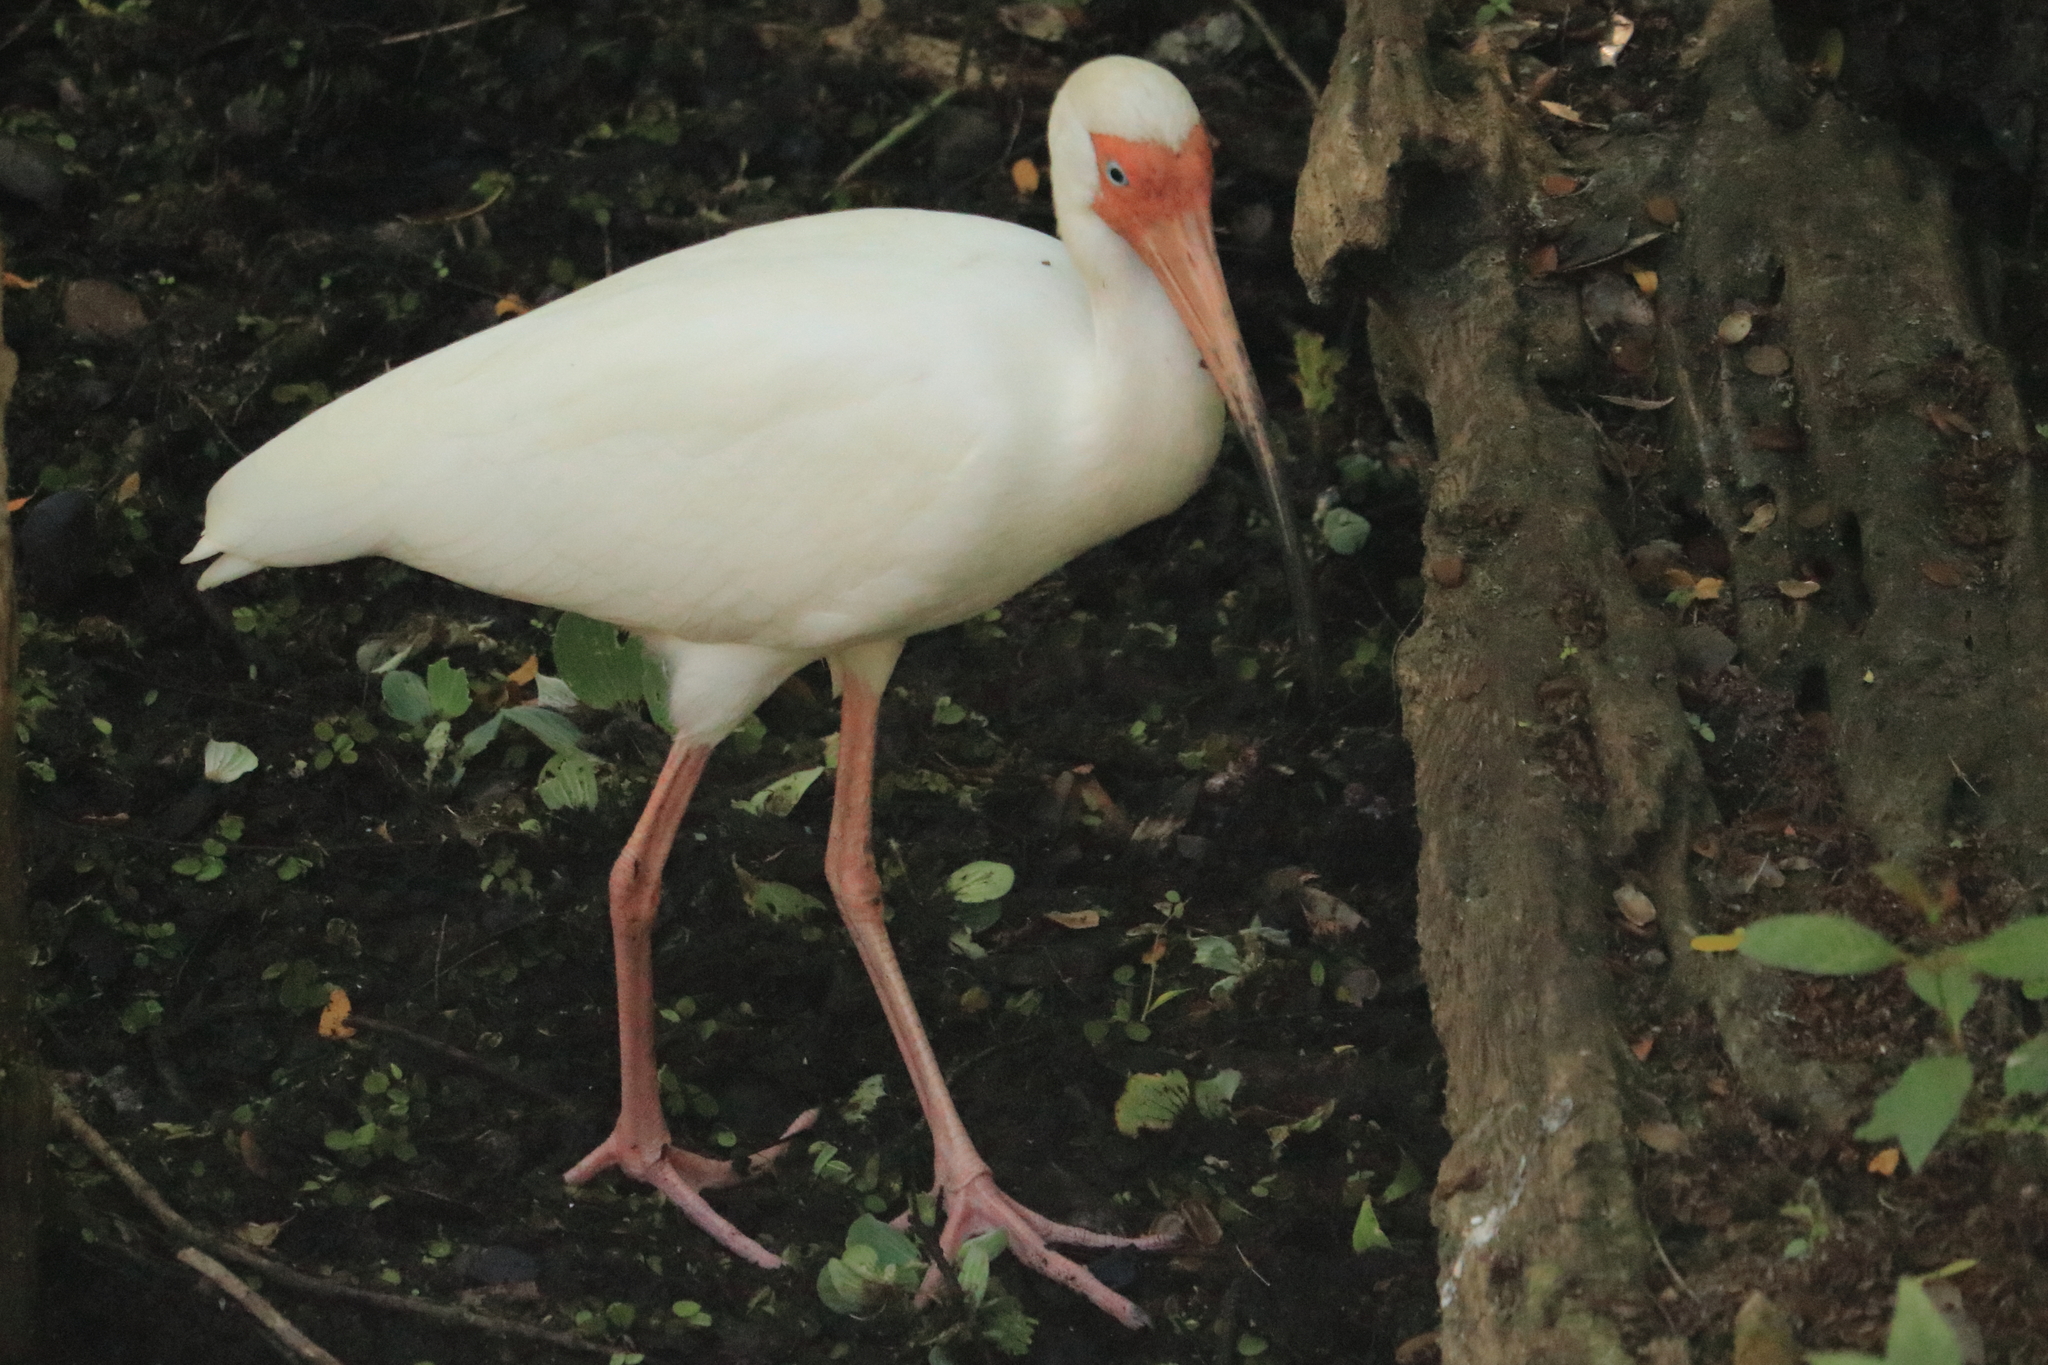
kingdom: Animalia
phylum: Chordata
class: Aves
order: Pelecaniformes
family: Threskiornithidae
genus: Eudocimus
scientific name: Eudocimus albus
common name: White ibis
